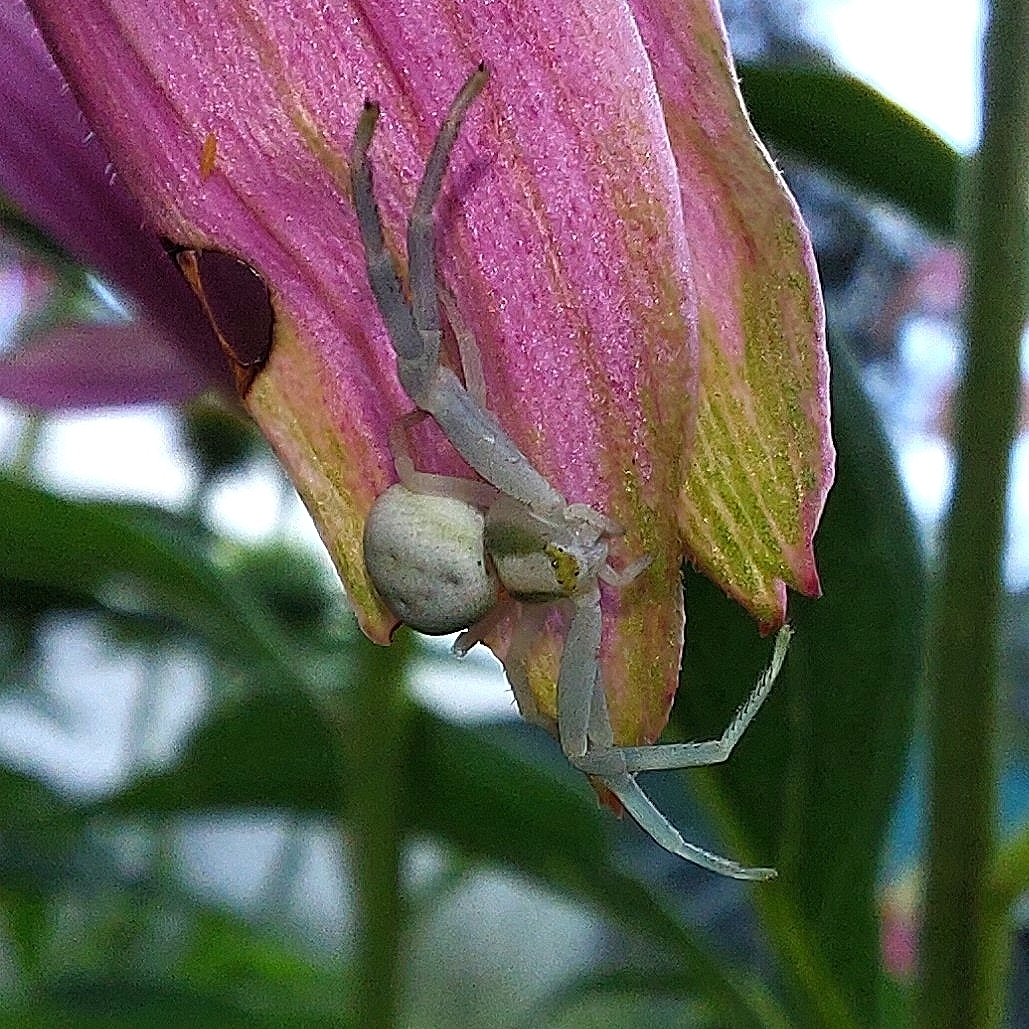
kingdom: Animalia
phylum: Arthropoda
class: Arachnida
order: Araneae
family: Thomisidae
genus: Misumena
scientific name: Misumena vatia
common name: Goldenrod crab spider
